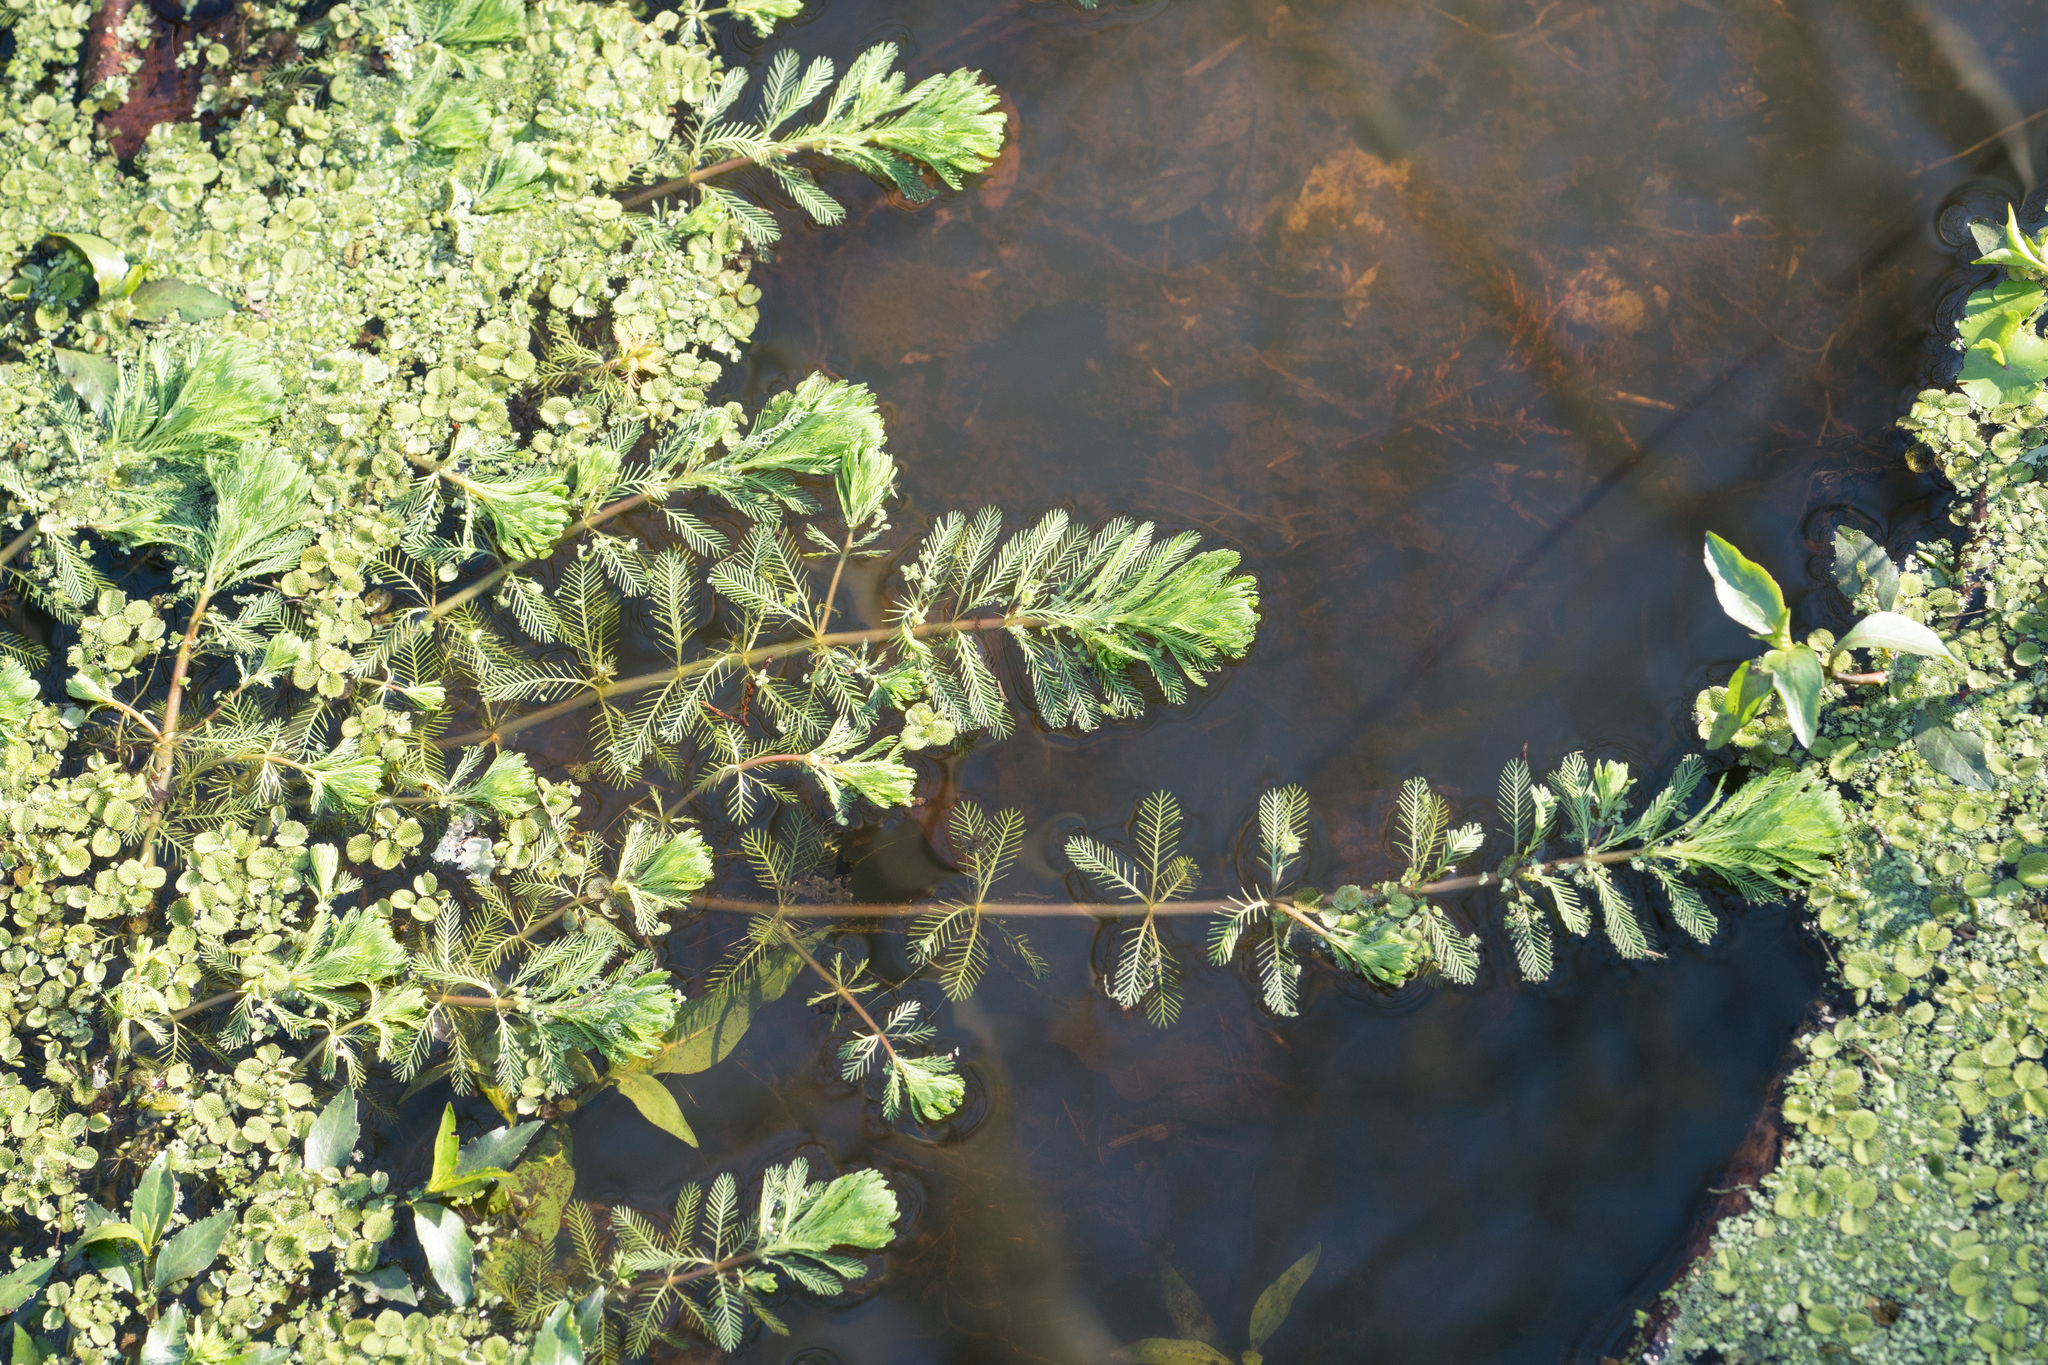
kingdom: Plantae
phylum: Tracheophyta
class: Magnoliopsida
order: Saxifragales
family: Haloragaceae
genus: Myriophyllum
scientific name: Myriophyllum aquaticum
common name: Parrot's feather
